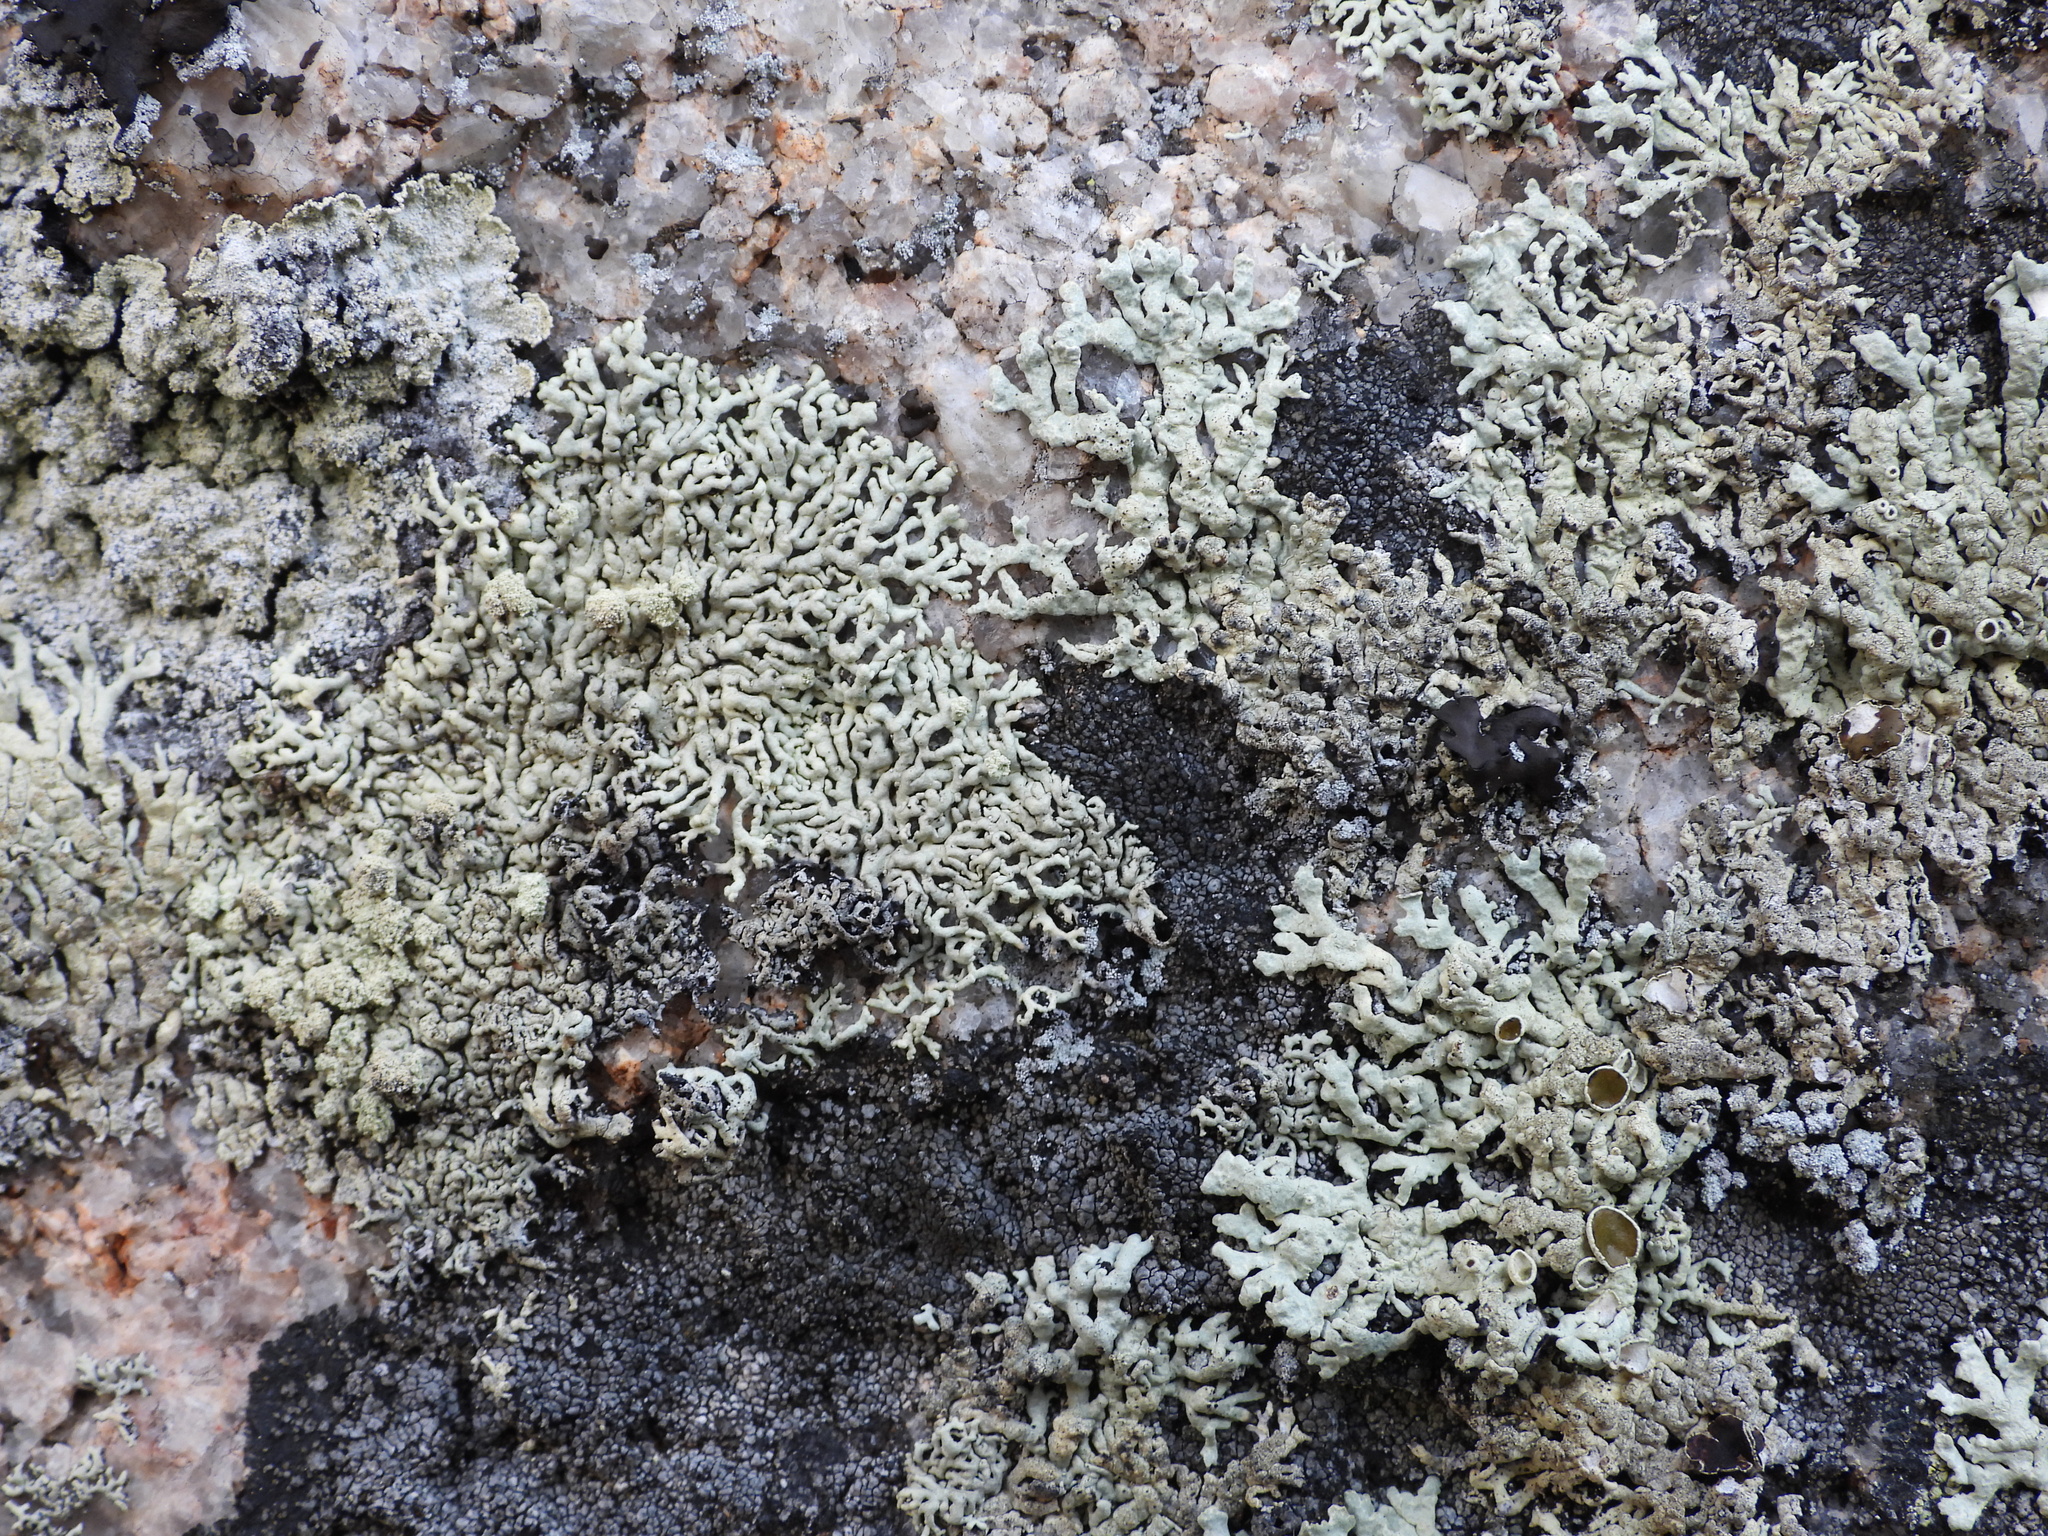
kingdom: Fungi
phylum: Ascomycota
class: Lecanoromycetes
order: Lecanorales
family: Parmeliaceae
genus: Arctoparmelia
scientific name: Arctoparmelia incurva
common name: Bent ring lichen
